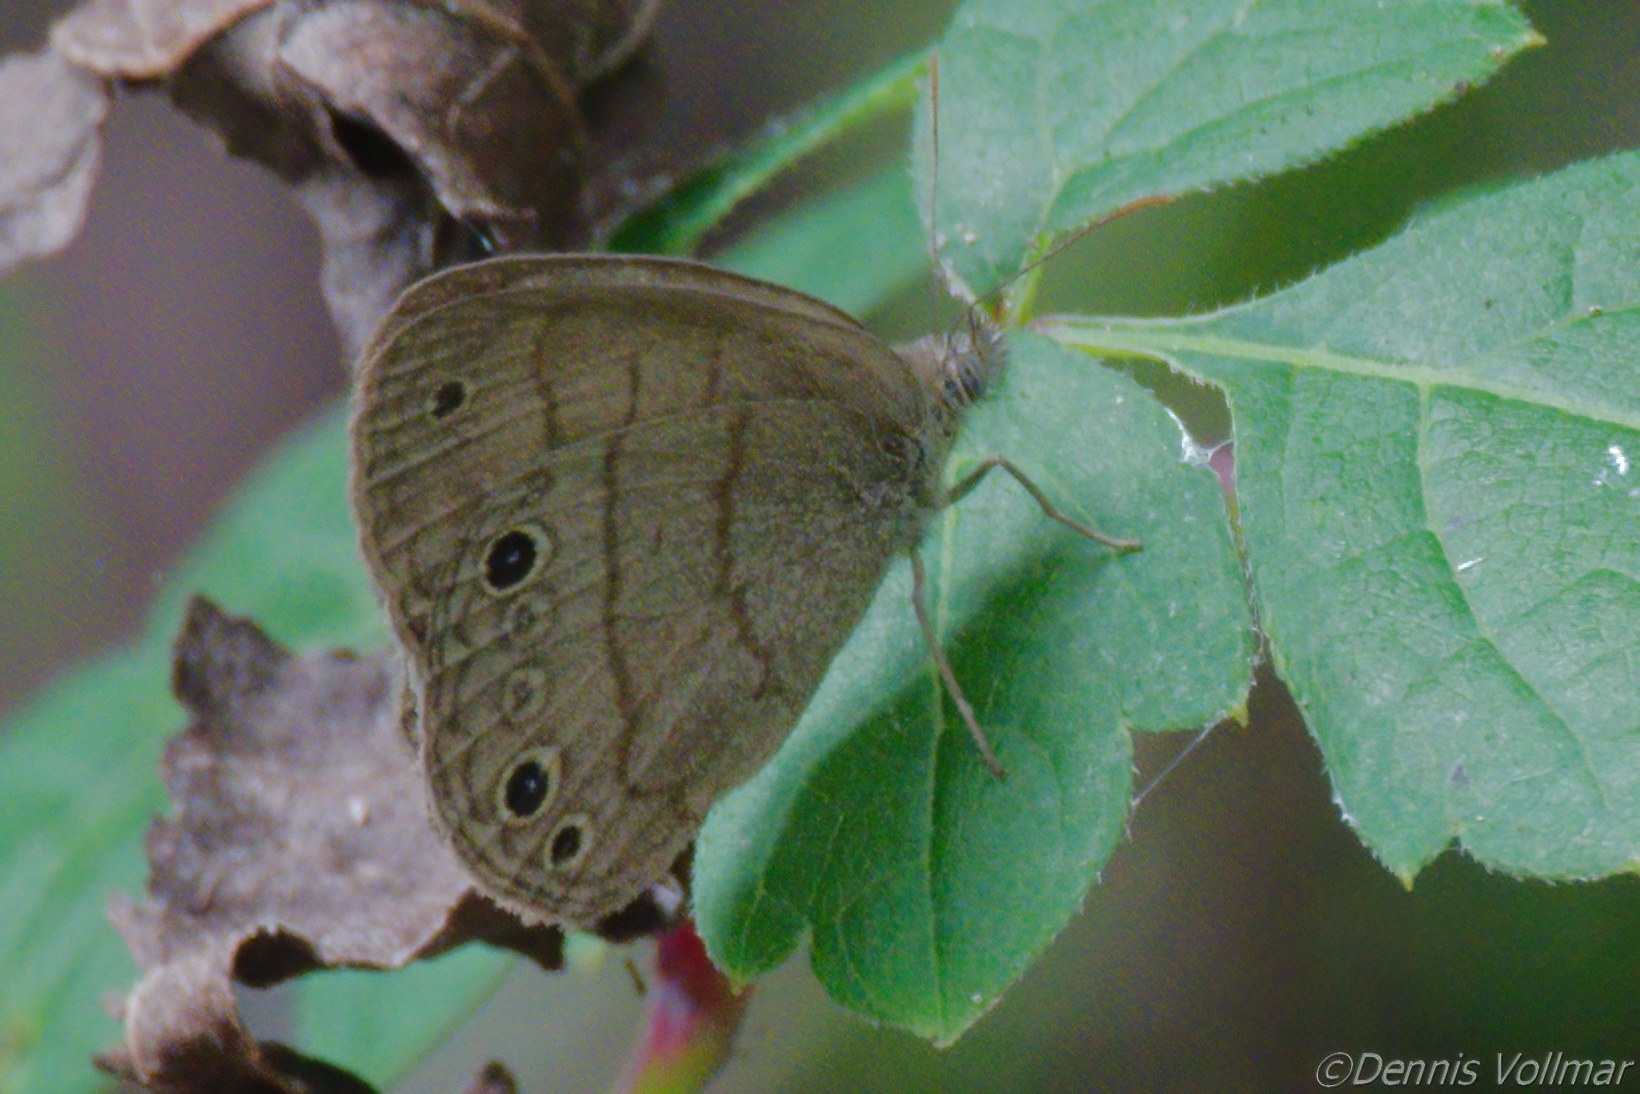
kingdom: Animalia
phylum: Arthropoda
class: Insecta
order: Lepidoptera
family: Nymphalidae
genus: Hermeuptychia
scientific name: Hermeuptychia intricata
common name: Intricate satyr
